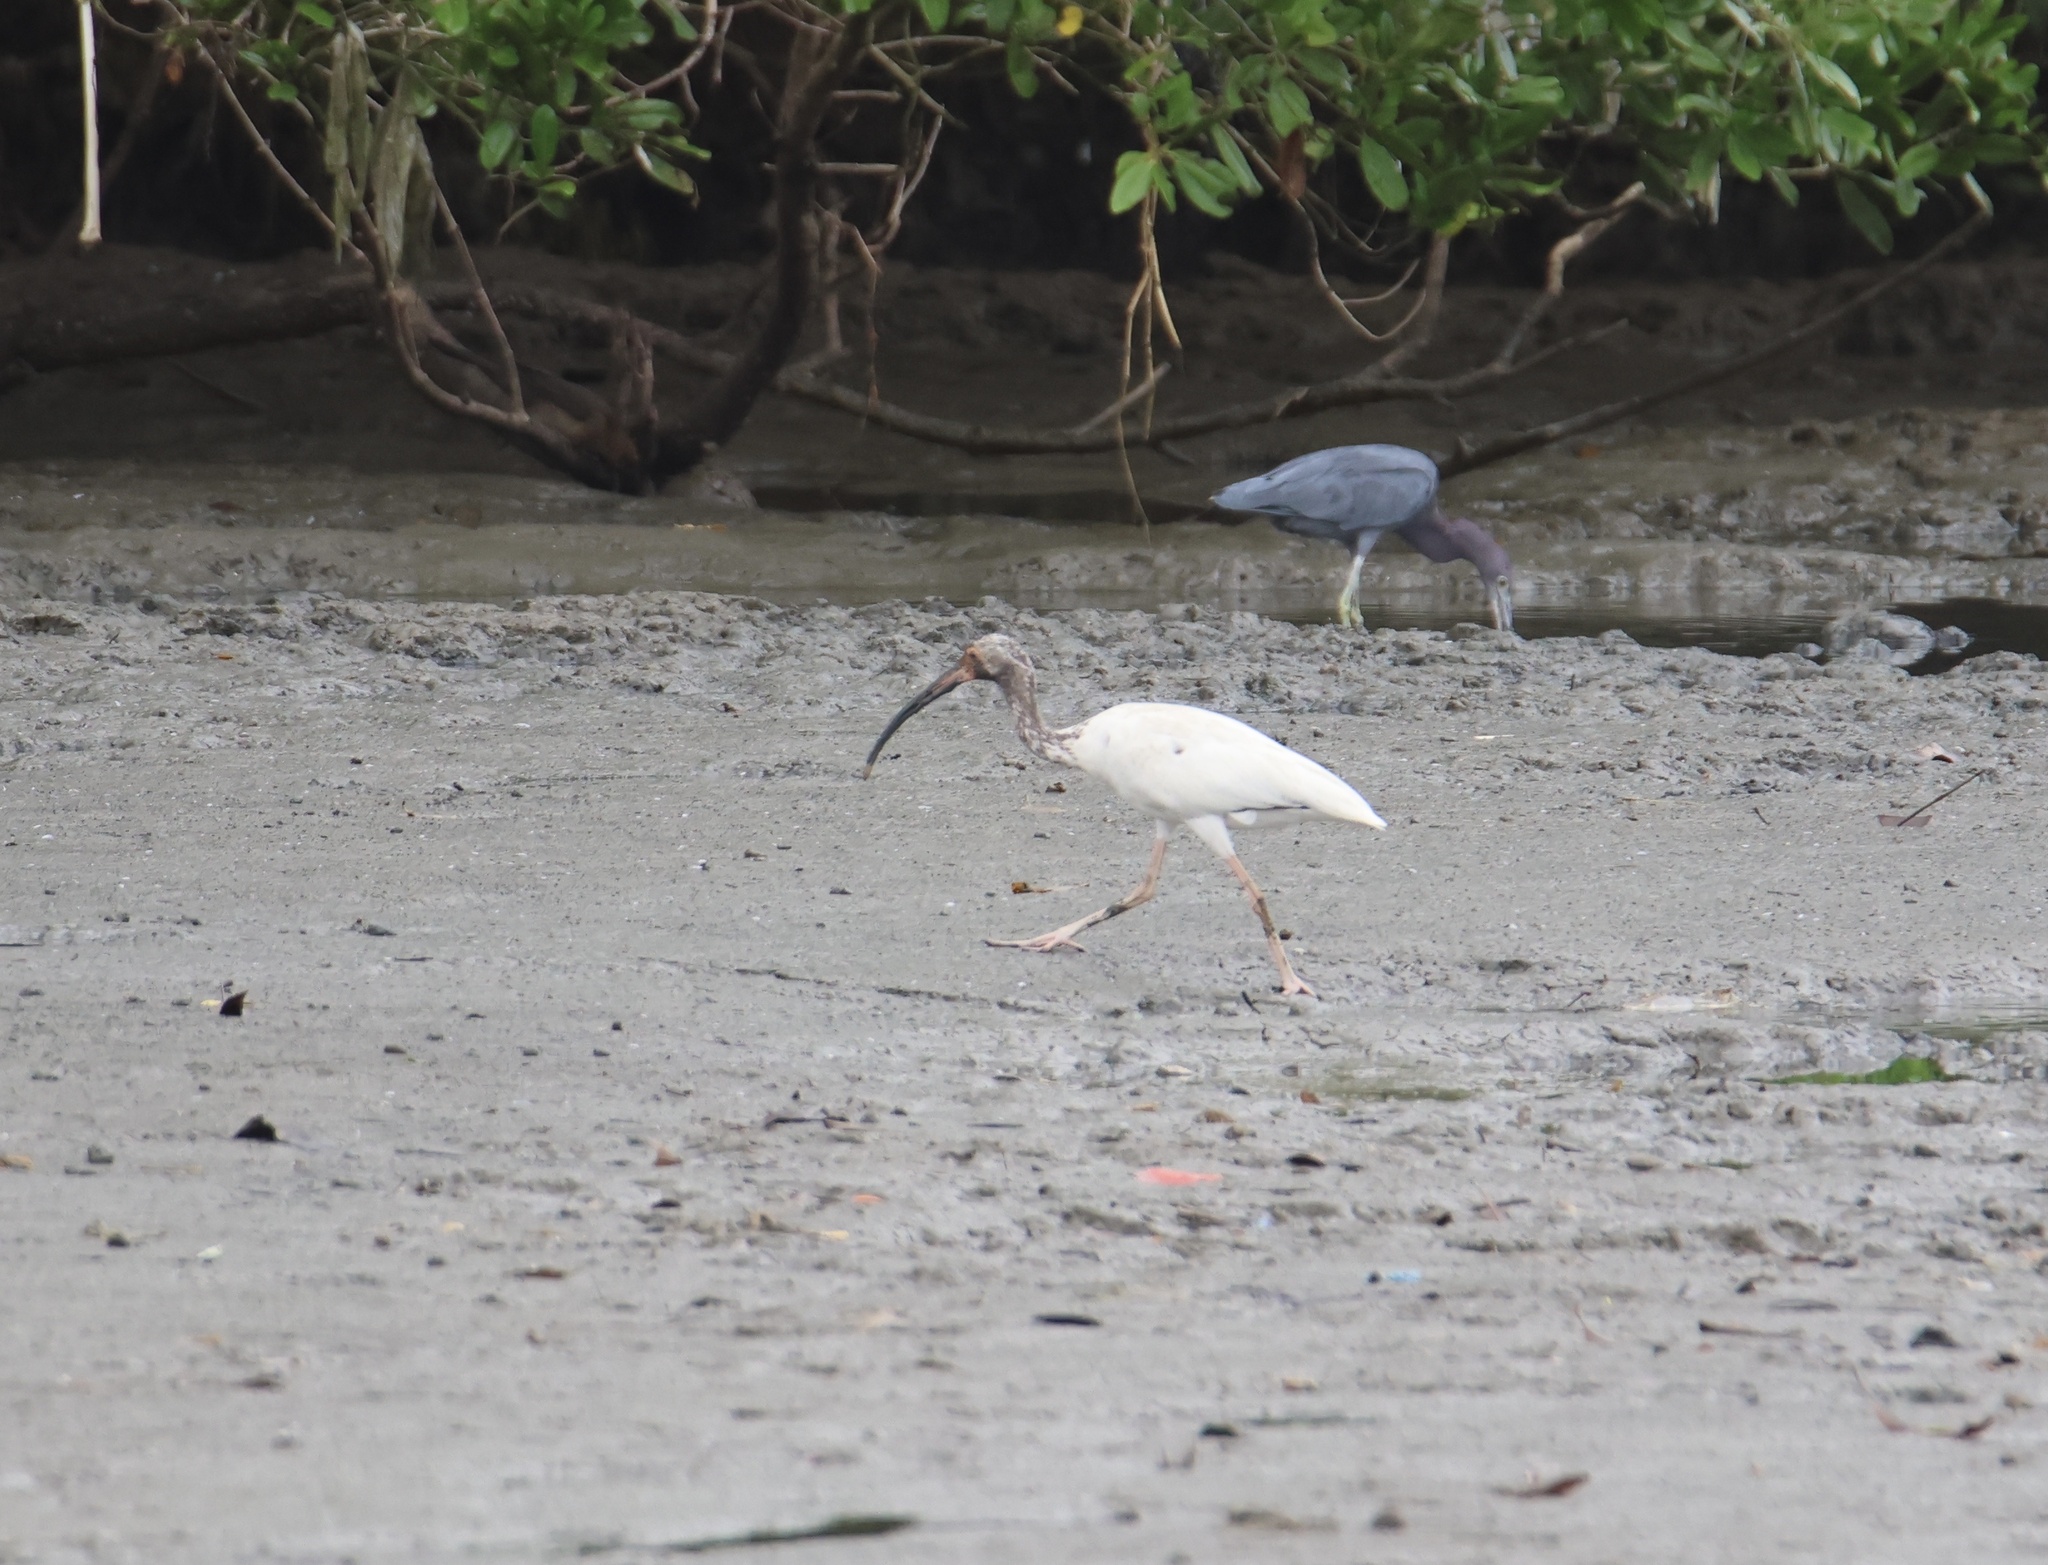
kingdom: Animalia
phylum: Chordata
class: Aves
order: Pelecaniformes
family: Threskiornithidae
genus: Eudocimus
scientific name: Eudocimus albus
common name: White ibis
